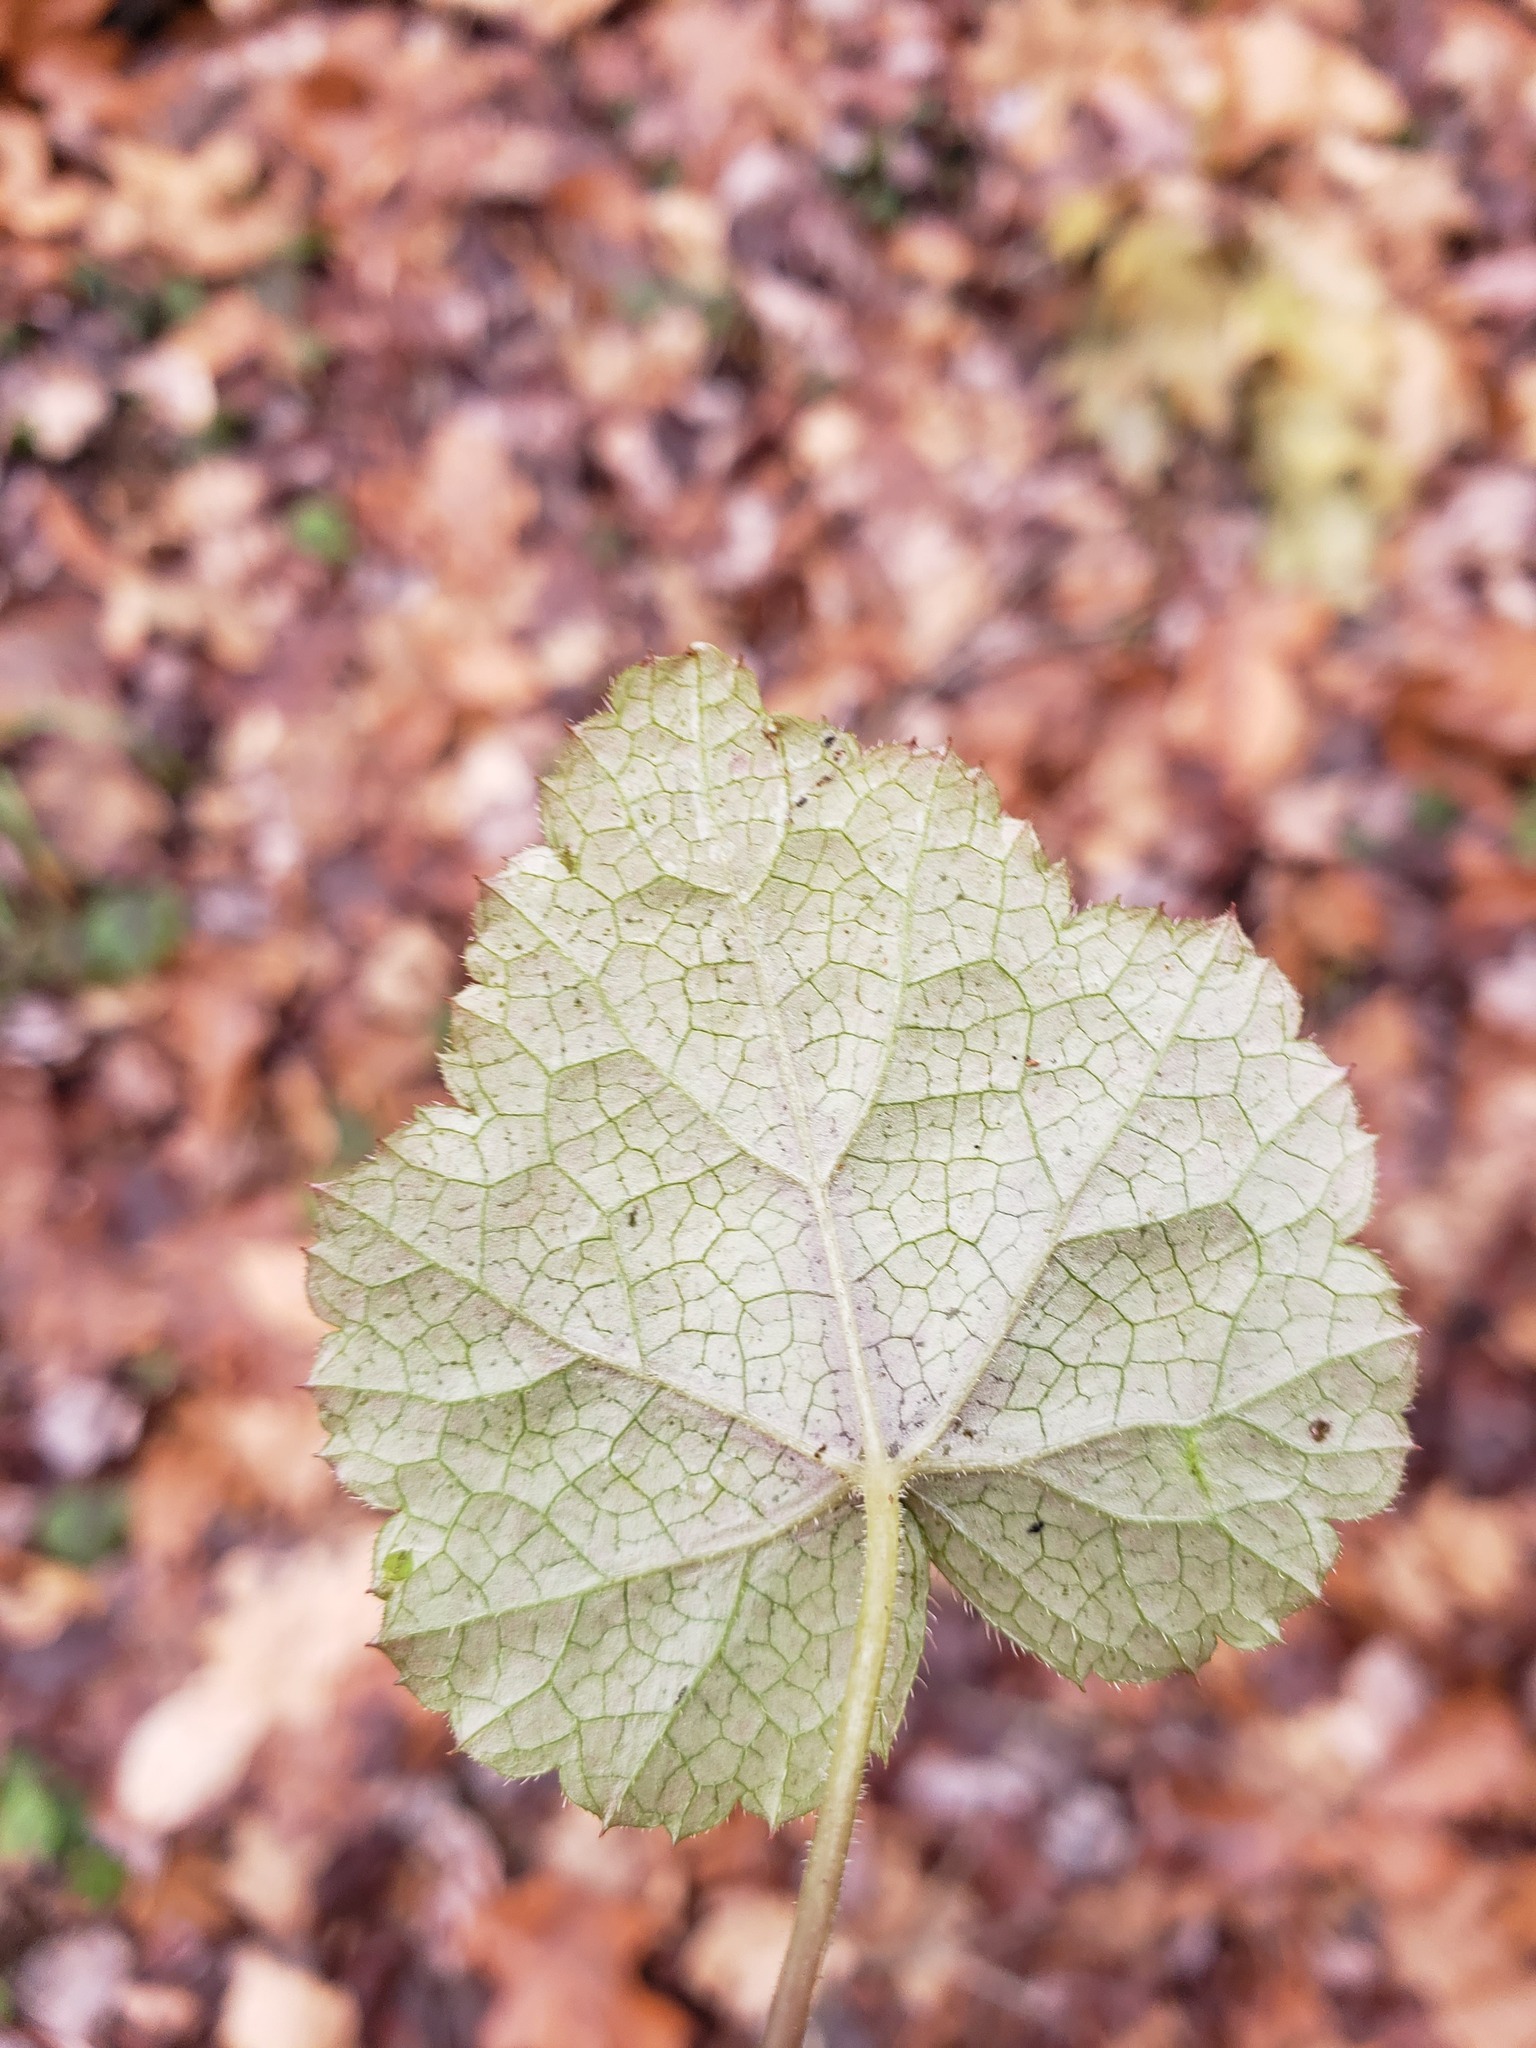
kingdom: Plantae
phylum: Tracheophyta
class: Magnoliopsida
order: Saxifragales
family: Saxifragaceae
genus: Tiarella
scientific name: Tiarella stolonifera
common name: Stoloniferous foamflower
